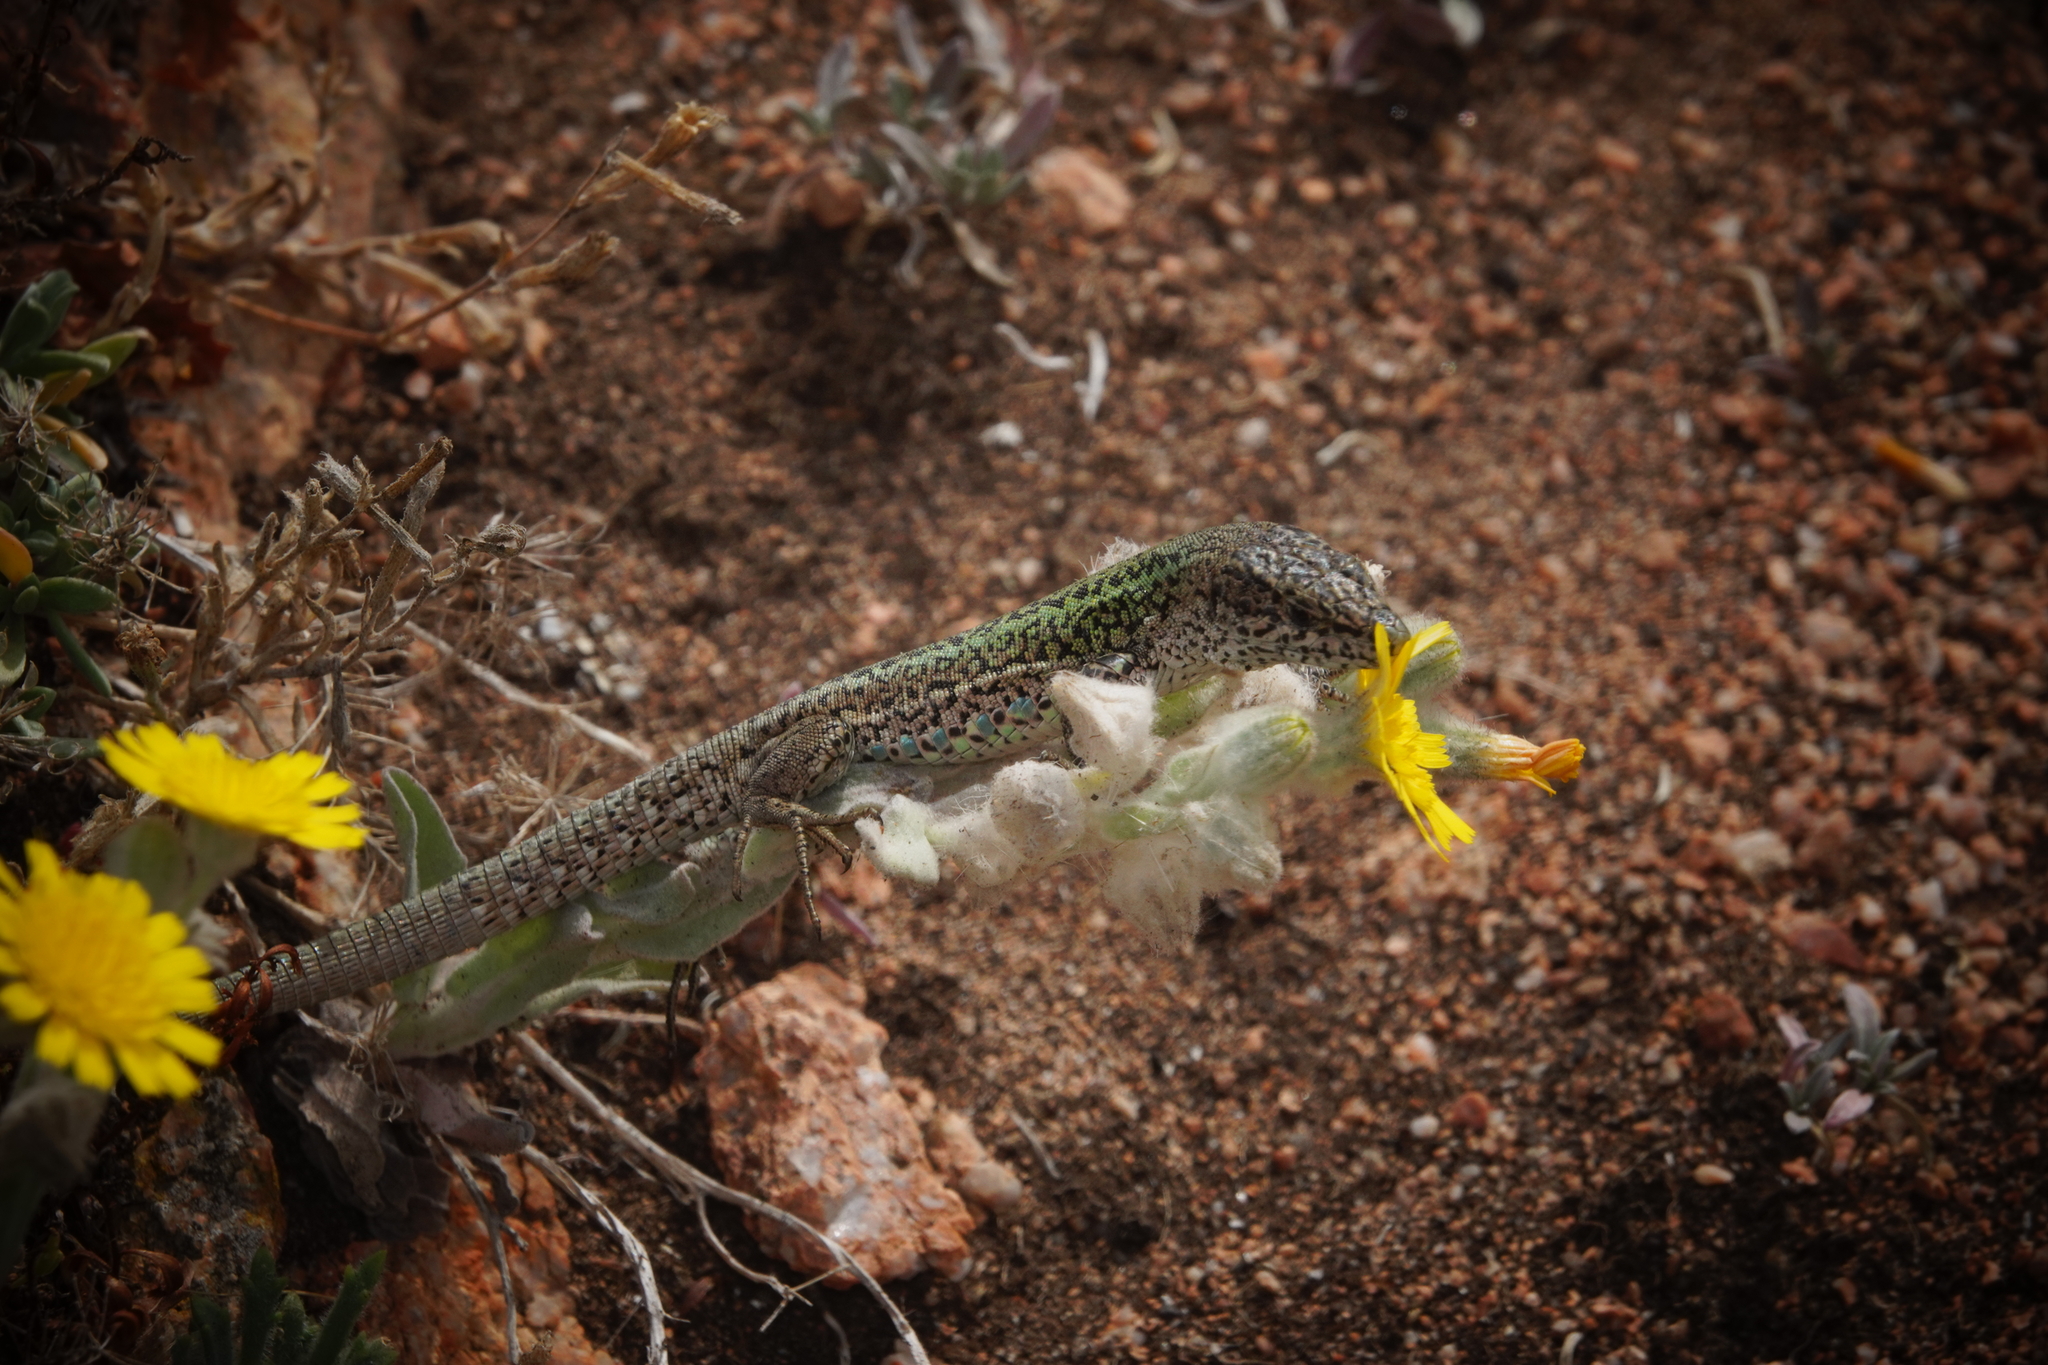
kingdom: Animalia
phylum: Chordata
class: Squamata
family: Lacertidae
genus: Podarcis
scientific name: Podarcis carbonelli
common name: Carbonelli's wall lizard
